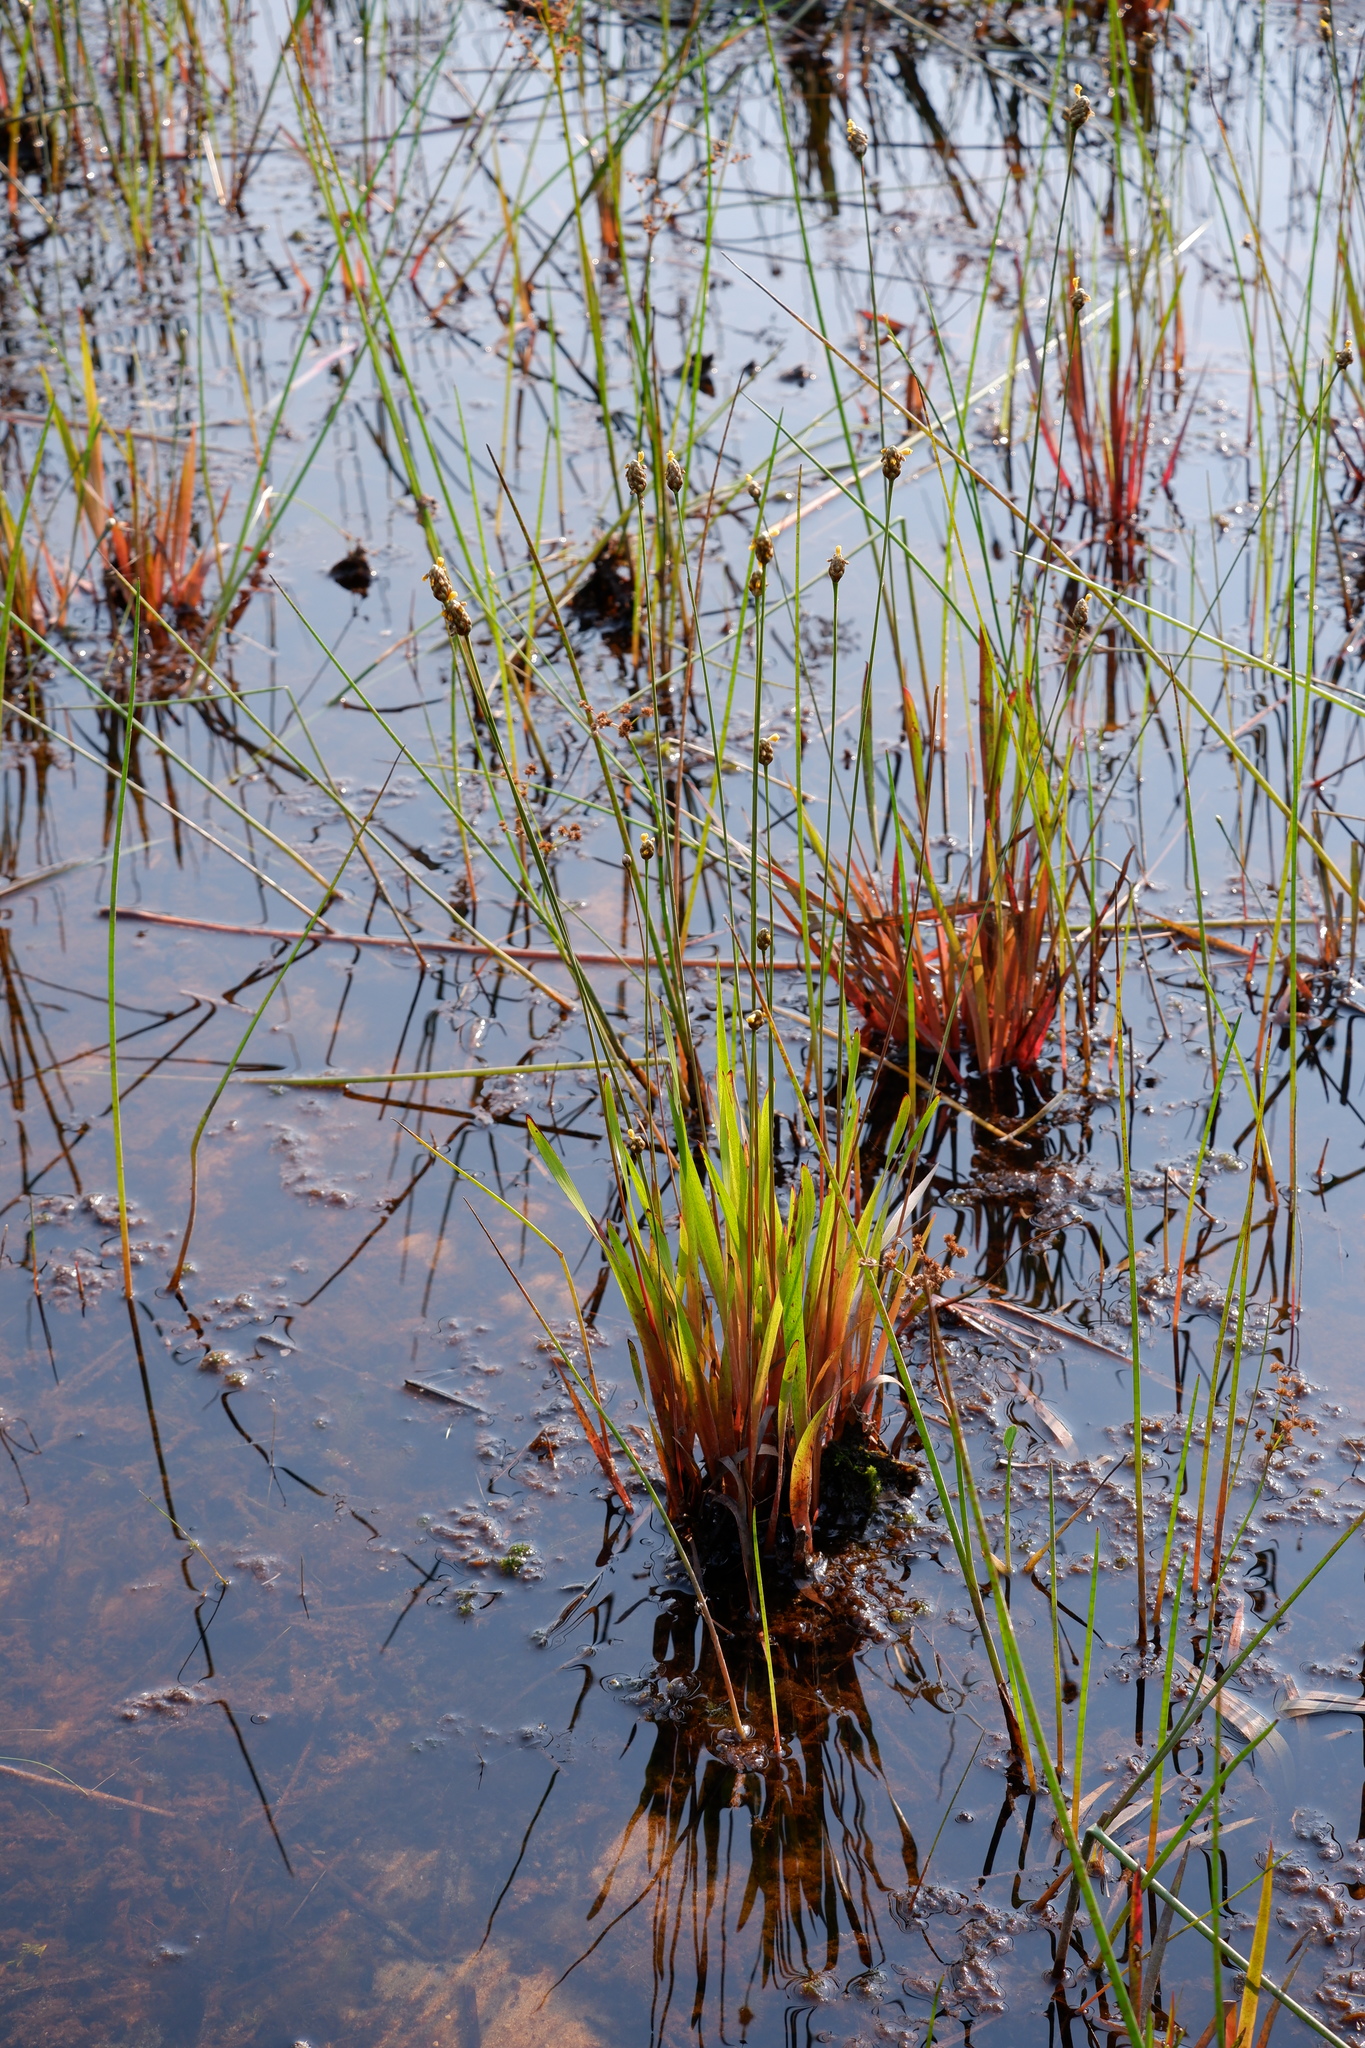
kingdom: Plantae
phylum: Tracheophyta
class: Liliopsida
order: Poales
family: Xyridaceae
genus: Xyris
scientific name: Xyris smalliana
